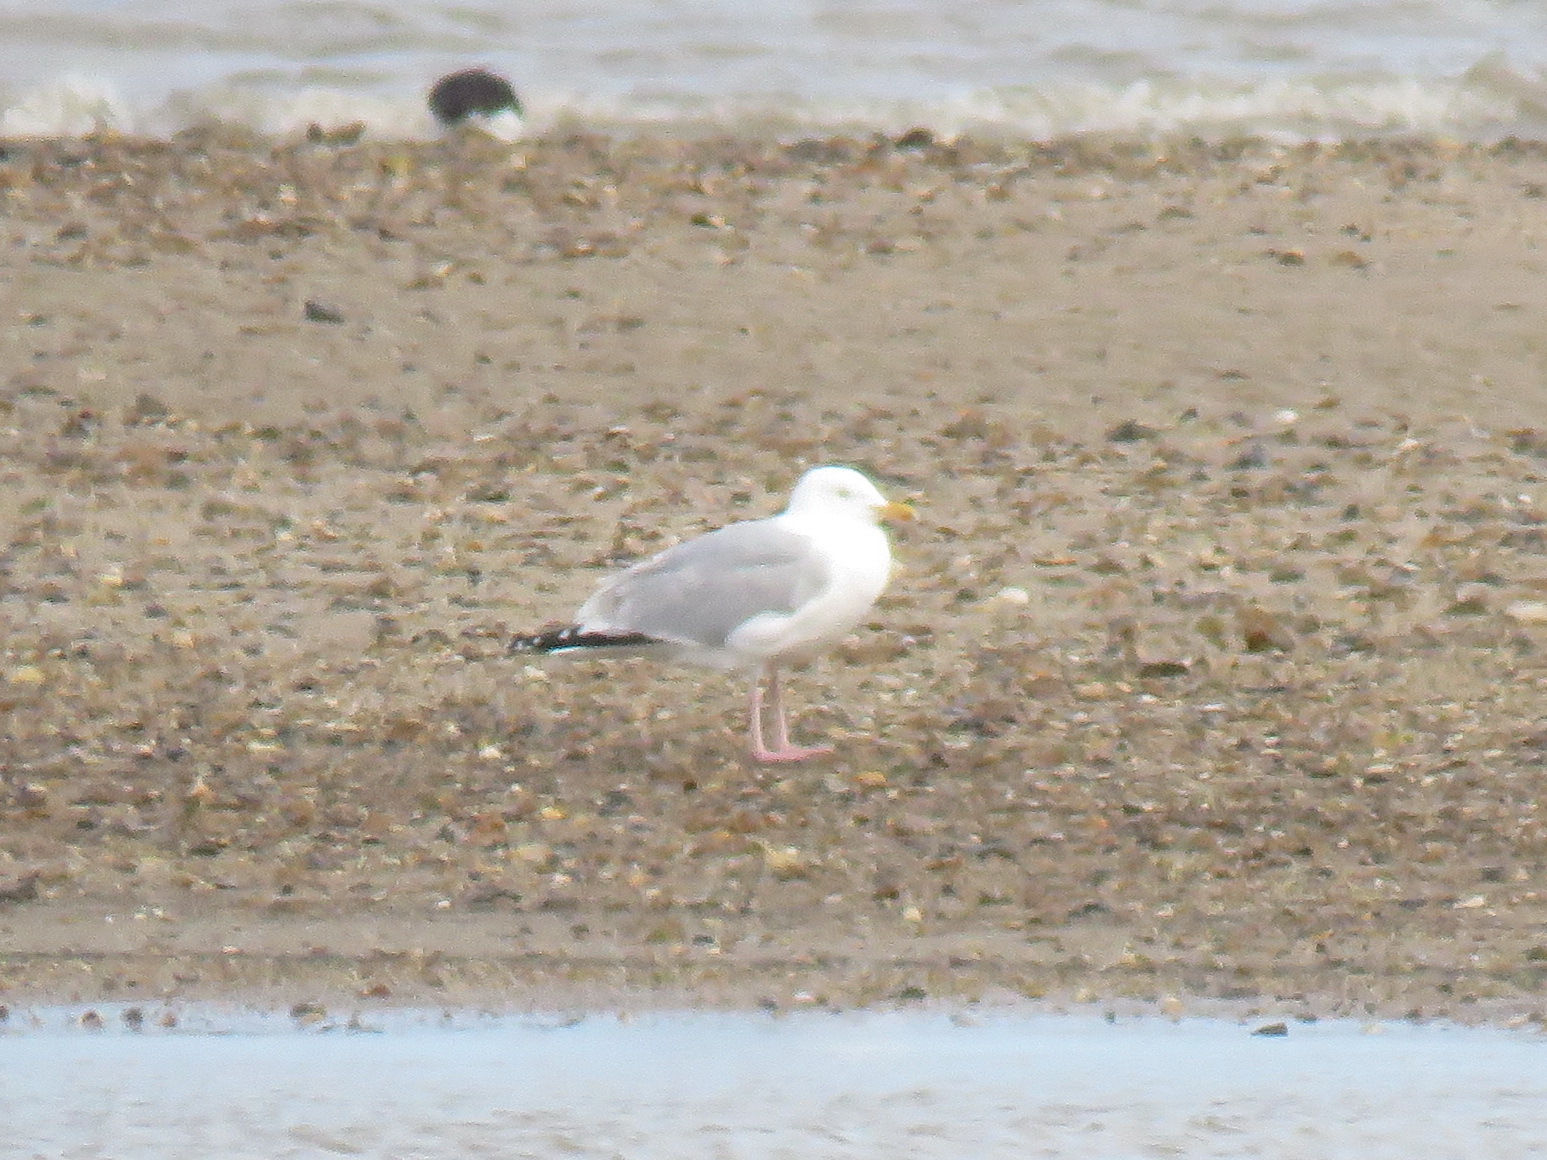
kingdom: Animalia
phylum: Chordata
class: Aves
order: Charadriiformes
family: Laridae
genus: Larus
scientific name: Larus argentatus
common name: Herring gull
